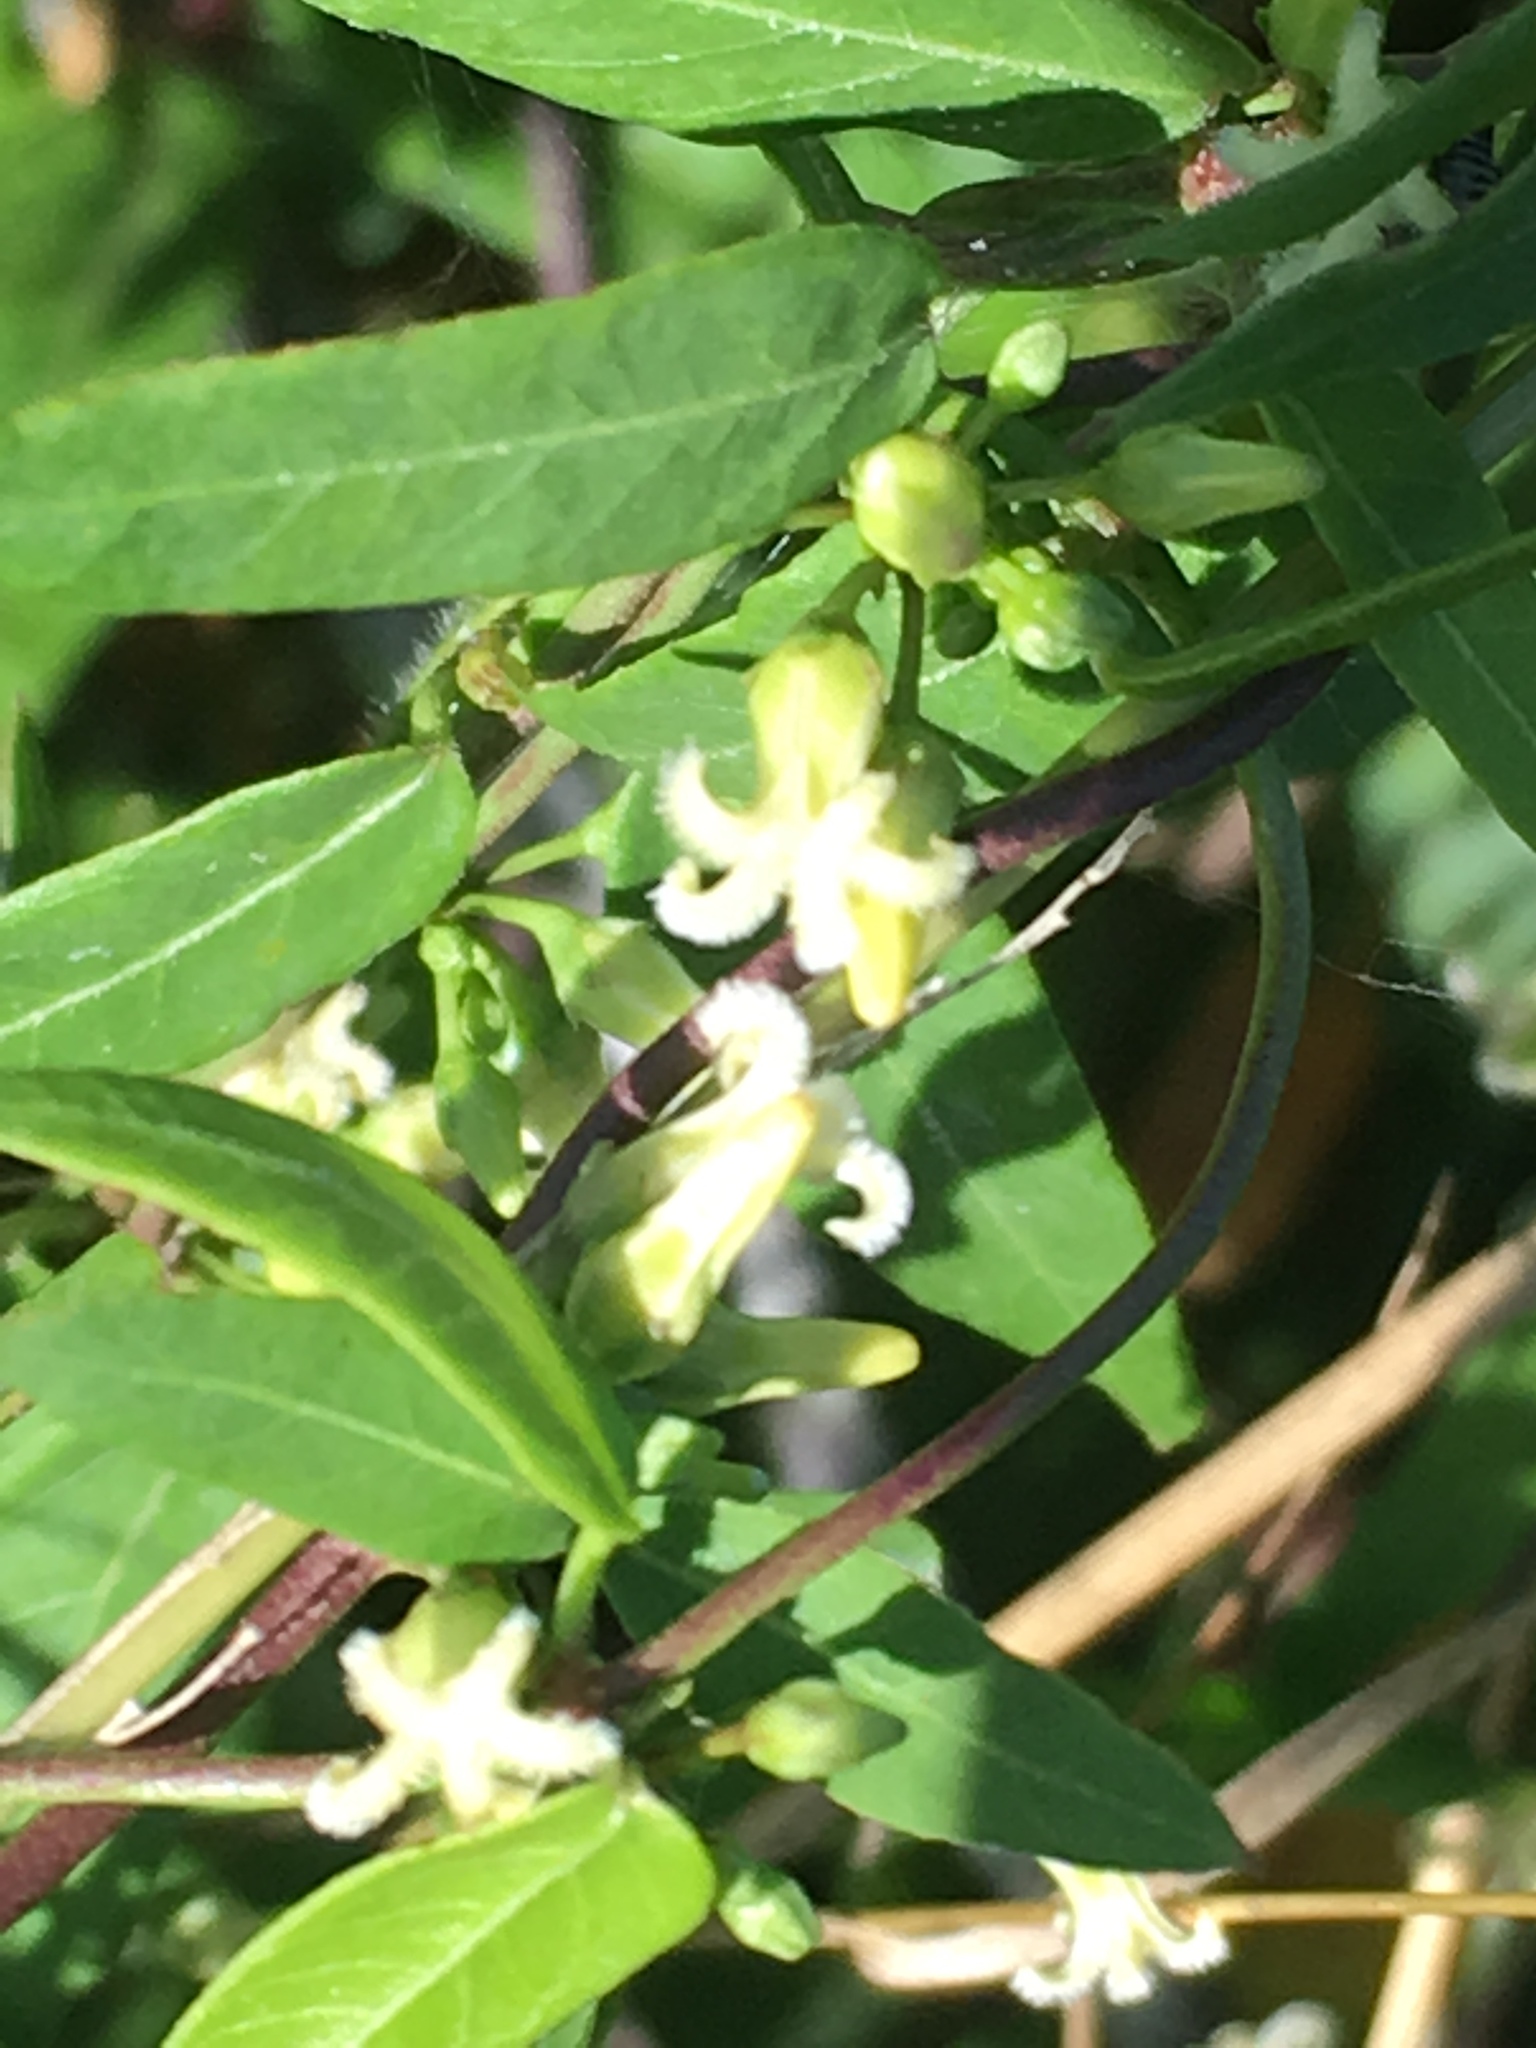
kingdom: Plantae
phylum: Tracheophyta
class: Magnoliopsida
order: Gentianales
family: Apocynaceae
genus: Metastelma
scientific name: Metastelma barbigerum
